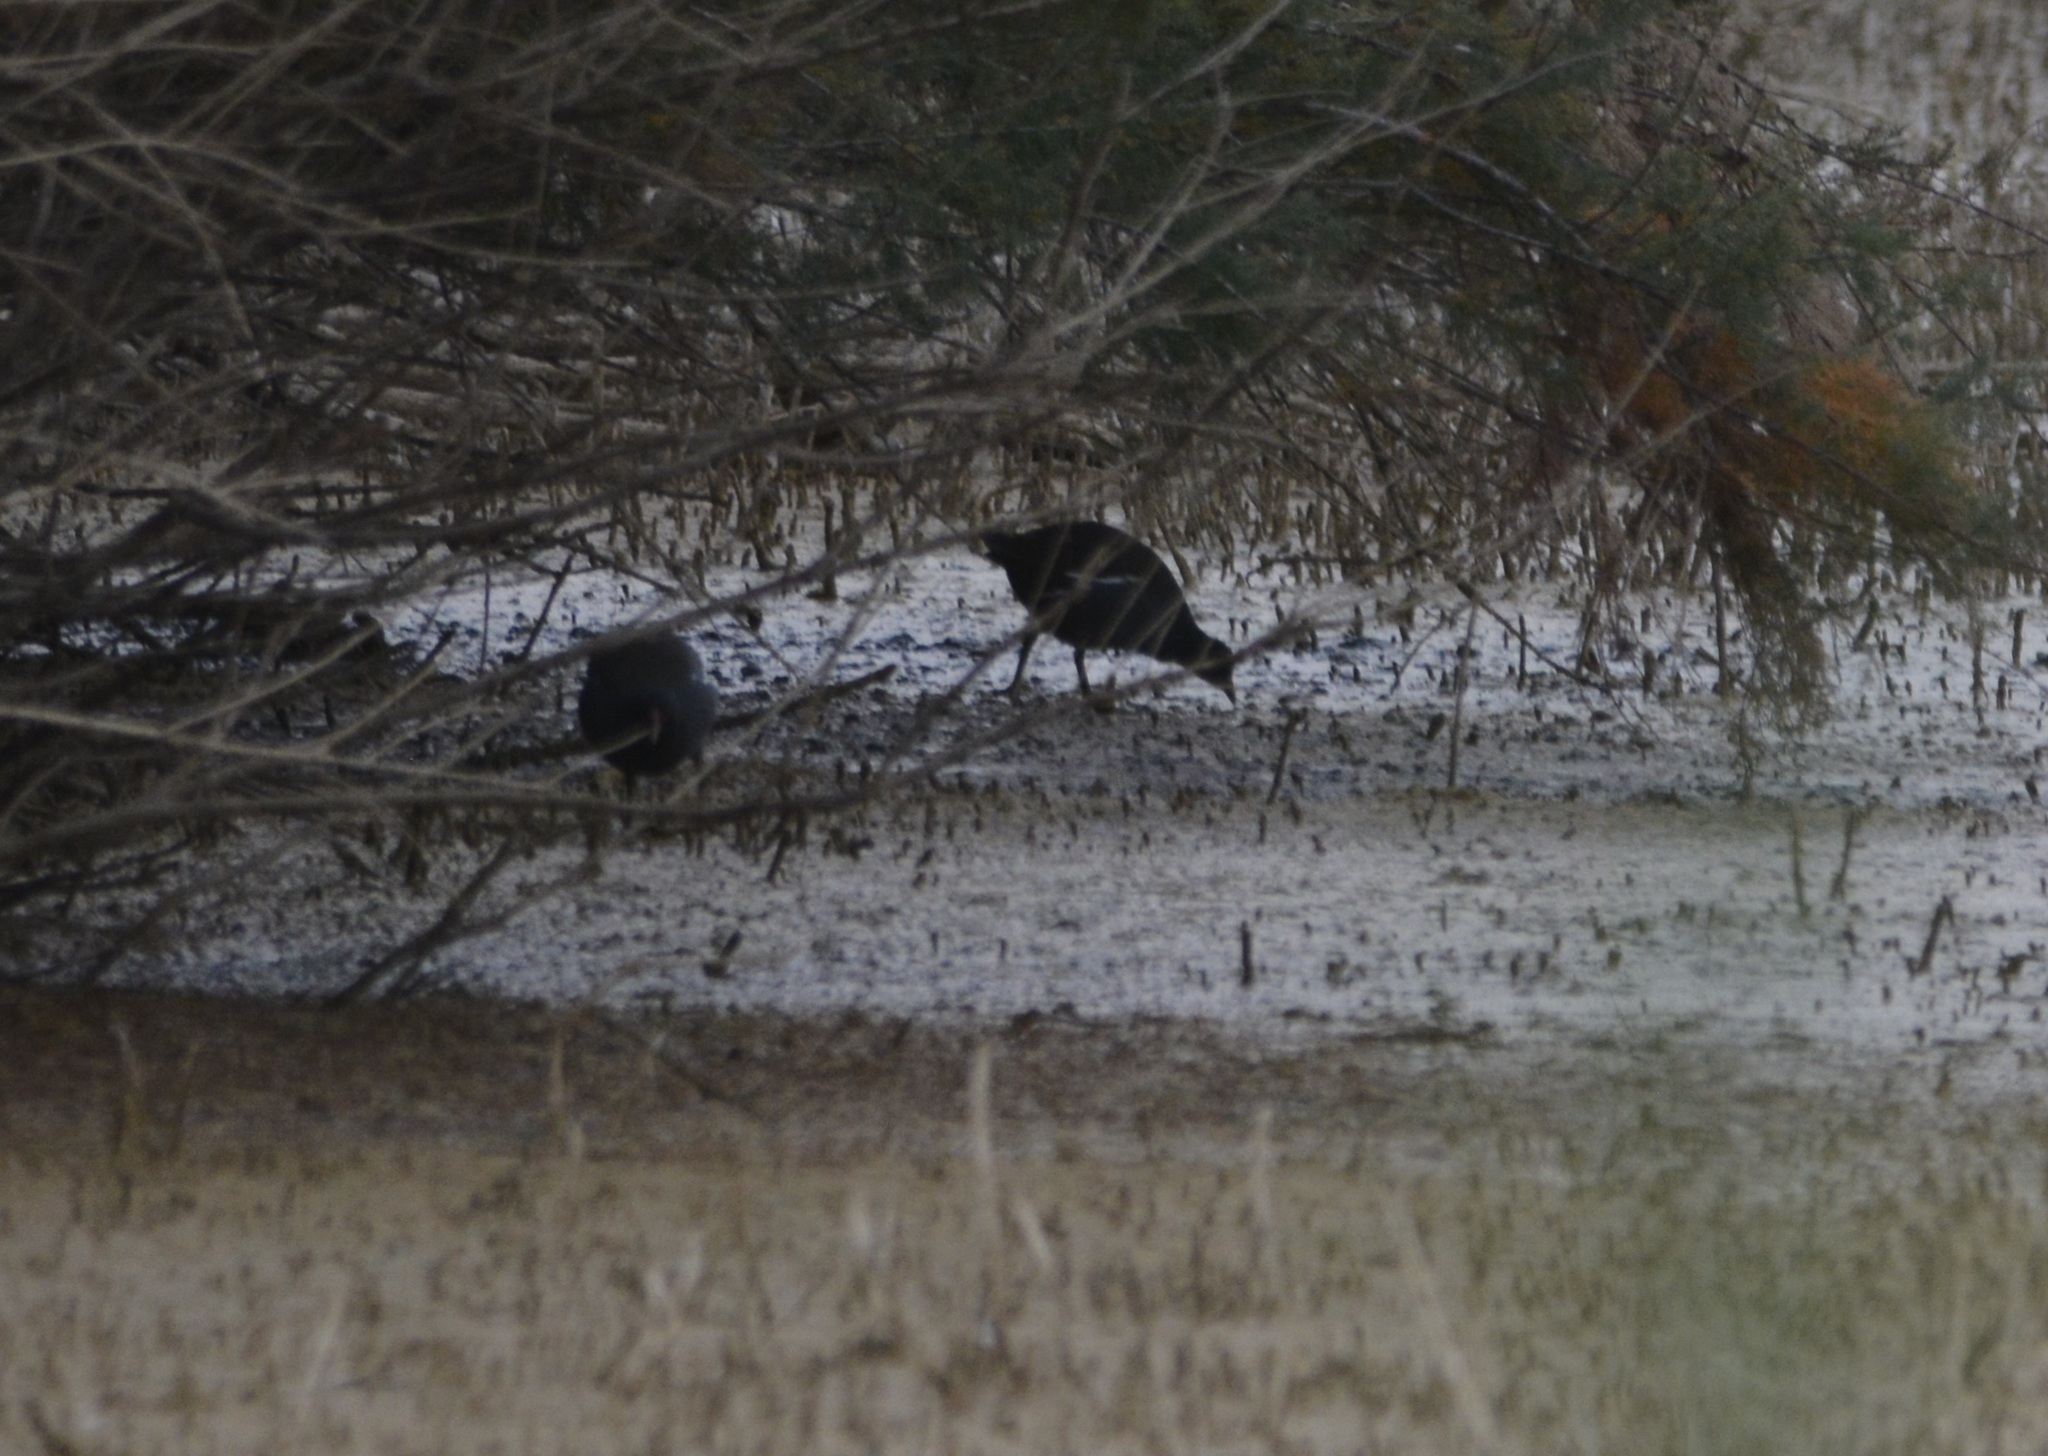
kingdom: Animalia
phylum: Chordata
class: Aves
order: Gruiformes
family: Rallidae
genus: Gallinula
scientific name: Gallinula chloropus
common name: Common moorhen
